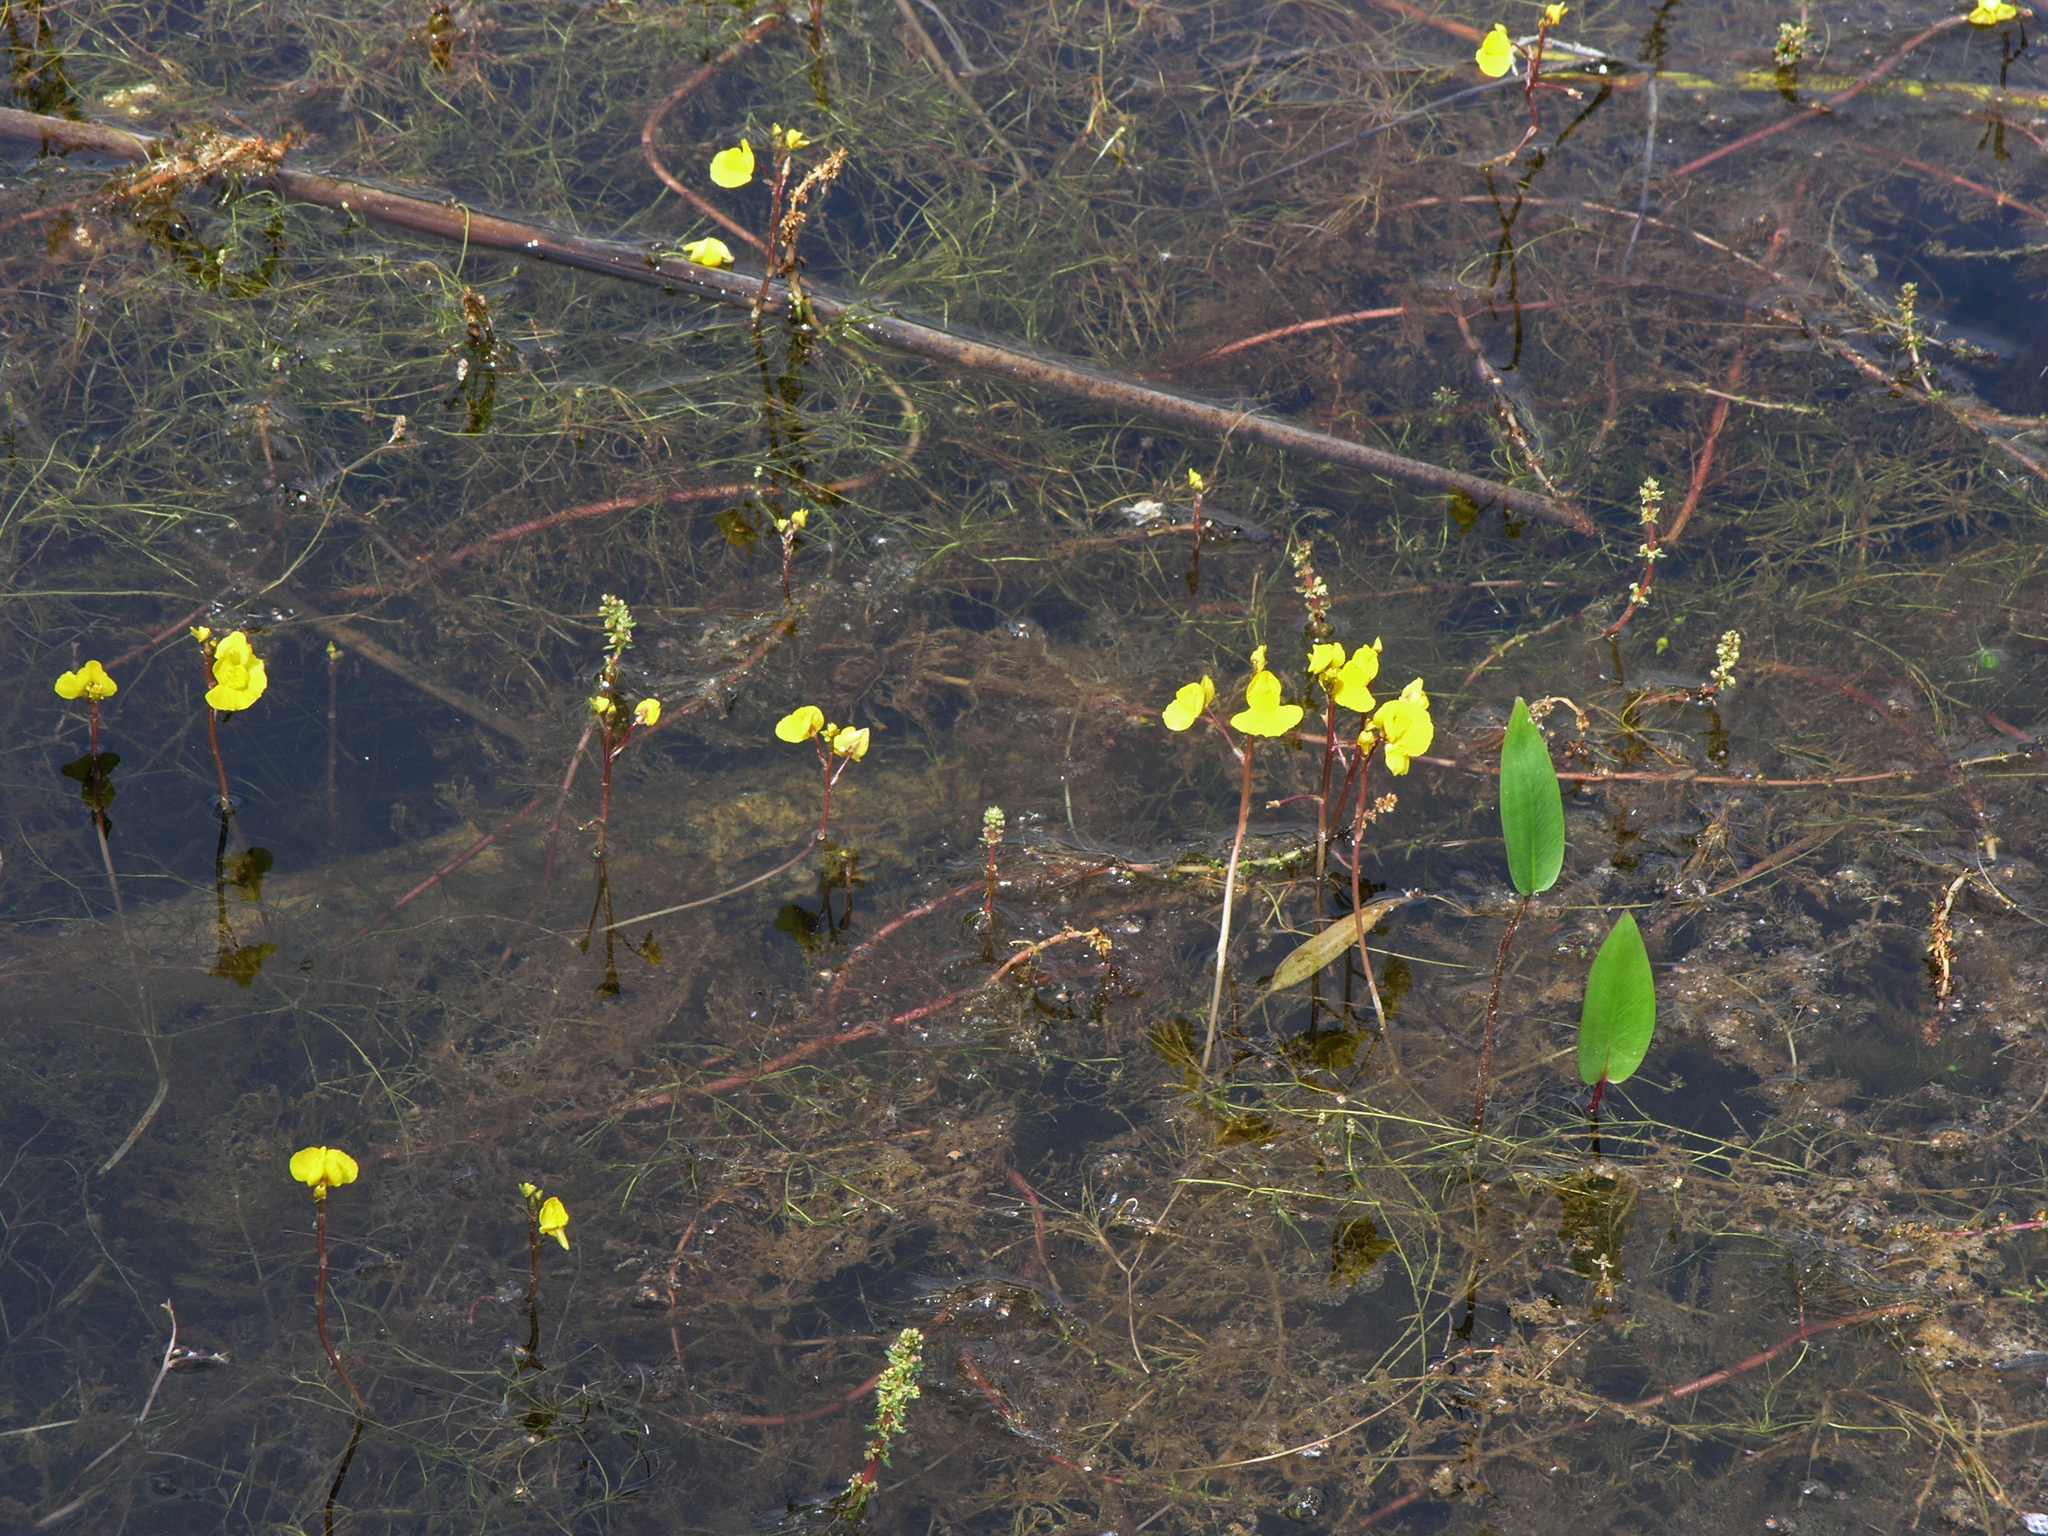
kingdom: Plantae
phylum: Tracheophyta
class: Magnoliopsida
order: Lamiales
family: Lentibulariaceae
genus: Utricularia
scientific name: Utricularia australis
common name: Bladderwort
